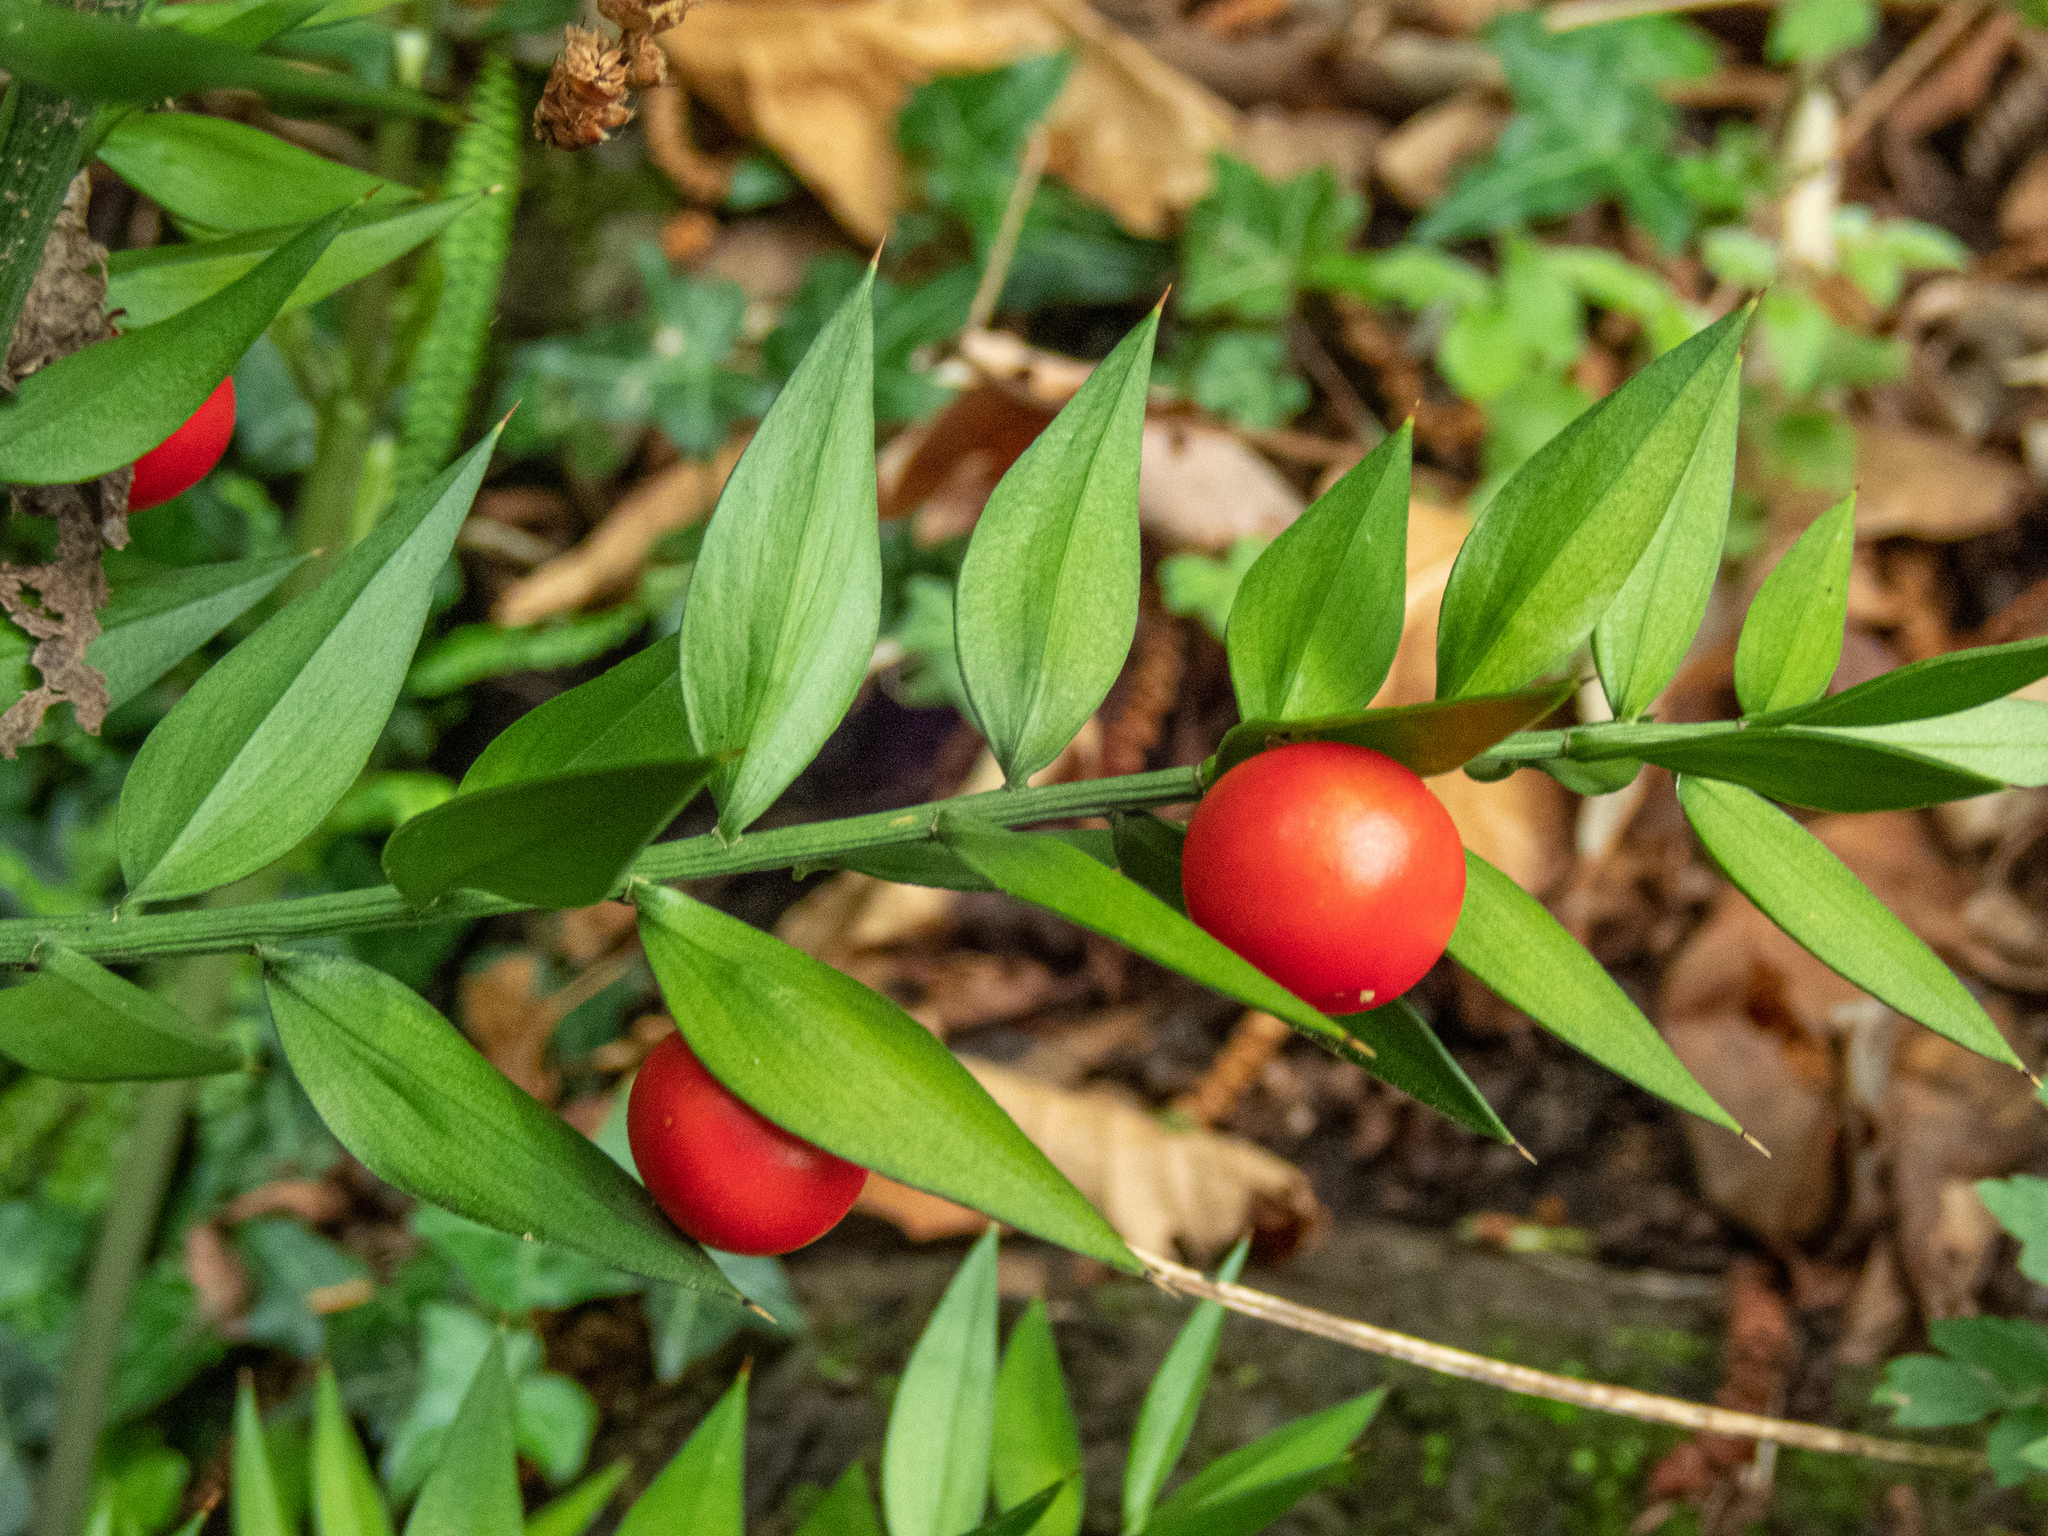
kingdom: Plantae
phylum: Tracheophyta
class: Liliopsida
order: Asparagales
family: Asparagaceae
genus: Ruscus
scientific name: Ruscus aculeatus
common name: Butcher's-broom
